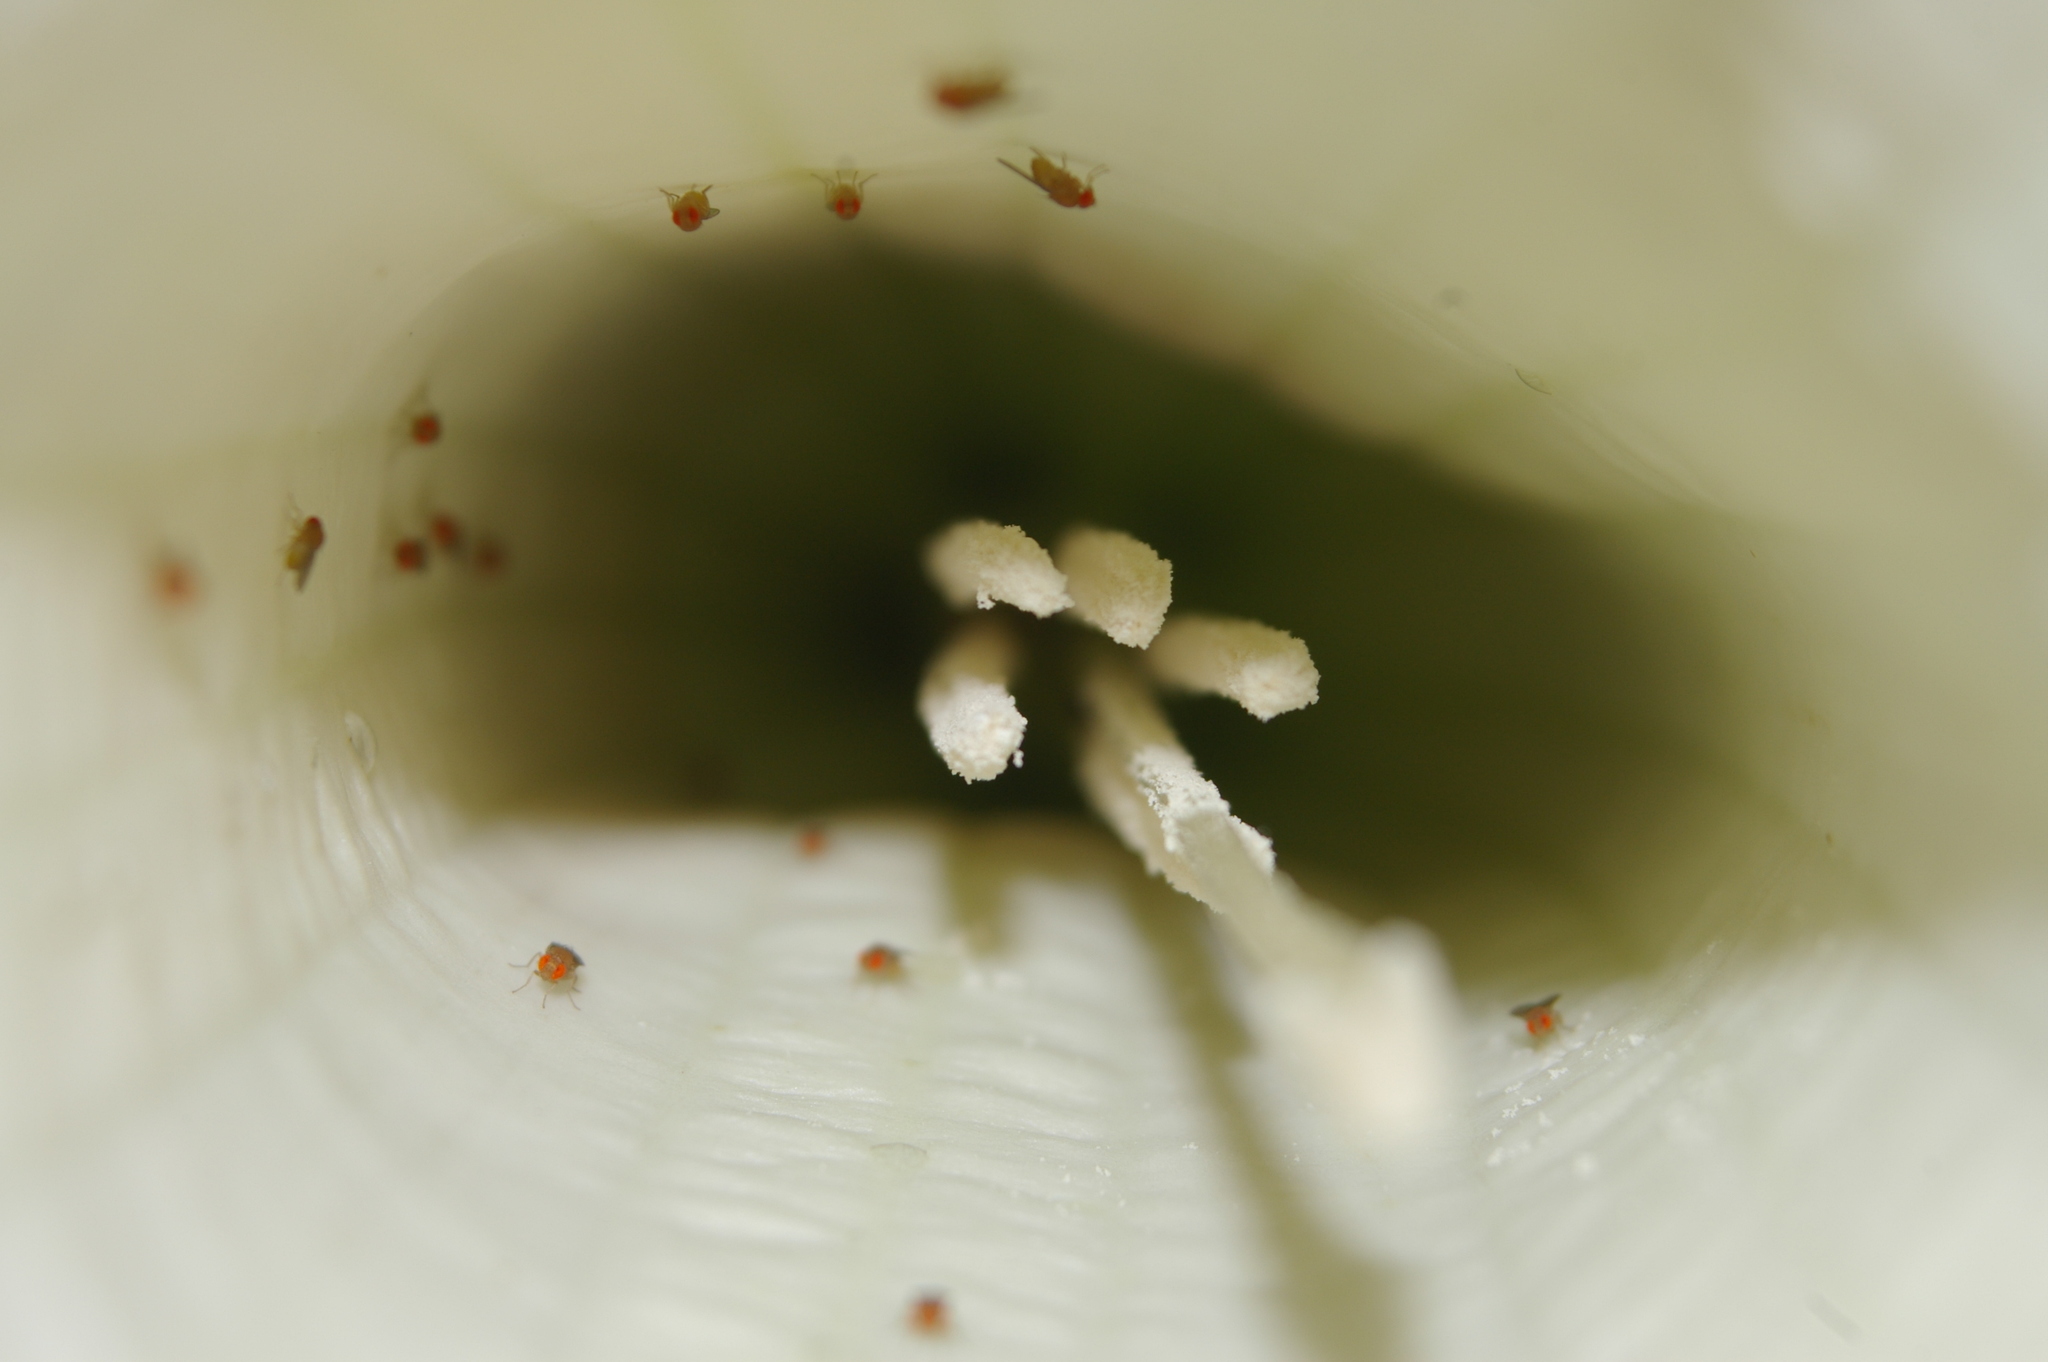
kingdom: Plantae
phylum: Tracheophyta
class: Magnoliopsida
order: Solanales
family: Solanaceae
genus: Brugmansia
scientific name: Brugmansia candida
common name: Angel's-trumpet
